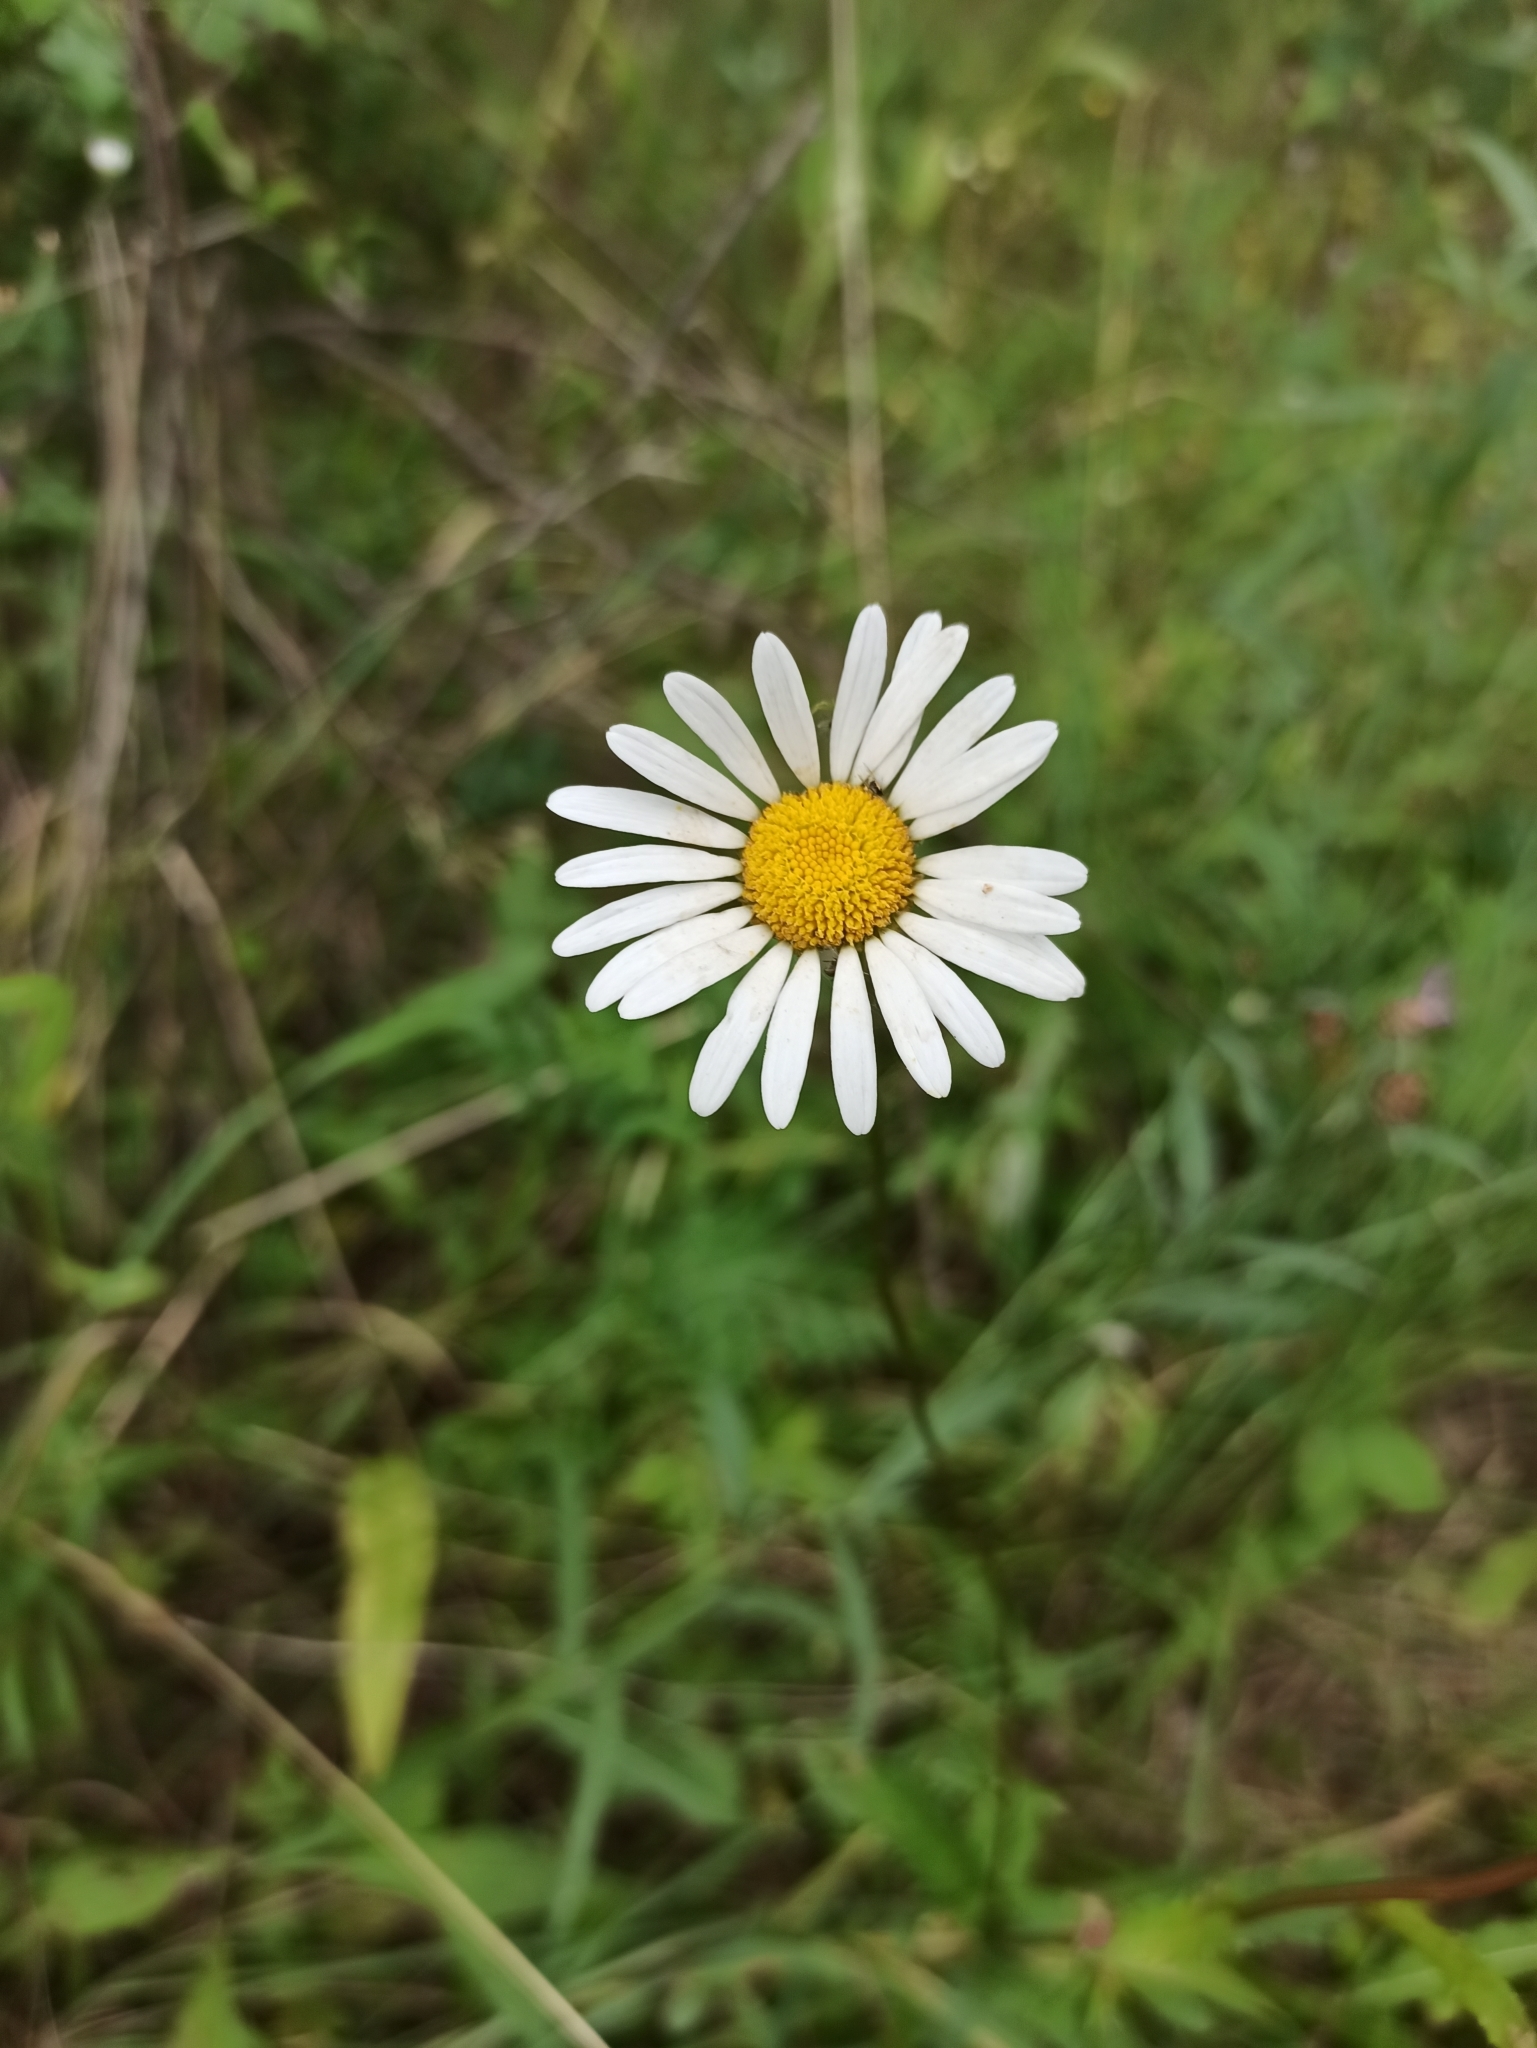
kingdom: Plantae
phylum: Tracheophyta
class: Magnoliopsida
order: Asterales
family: Asteraceae
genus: Leucanthemum
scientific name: Leucanthemum vulgare
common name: Oxeye daisy
